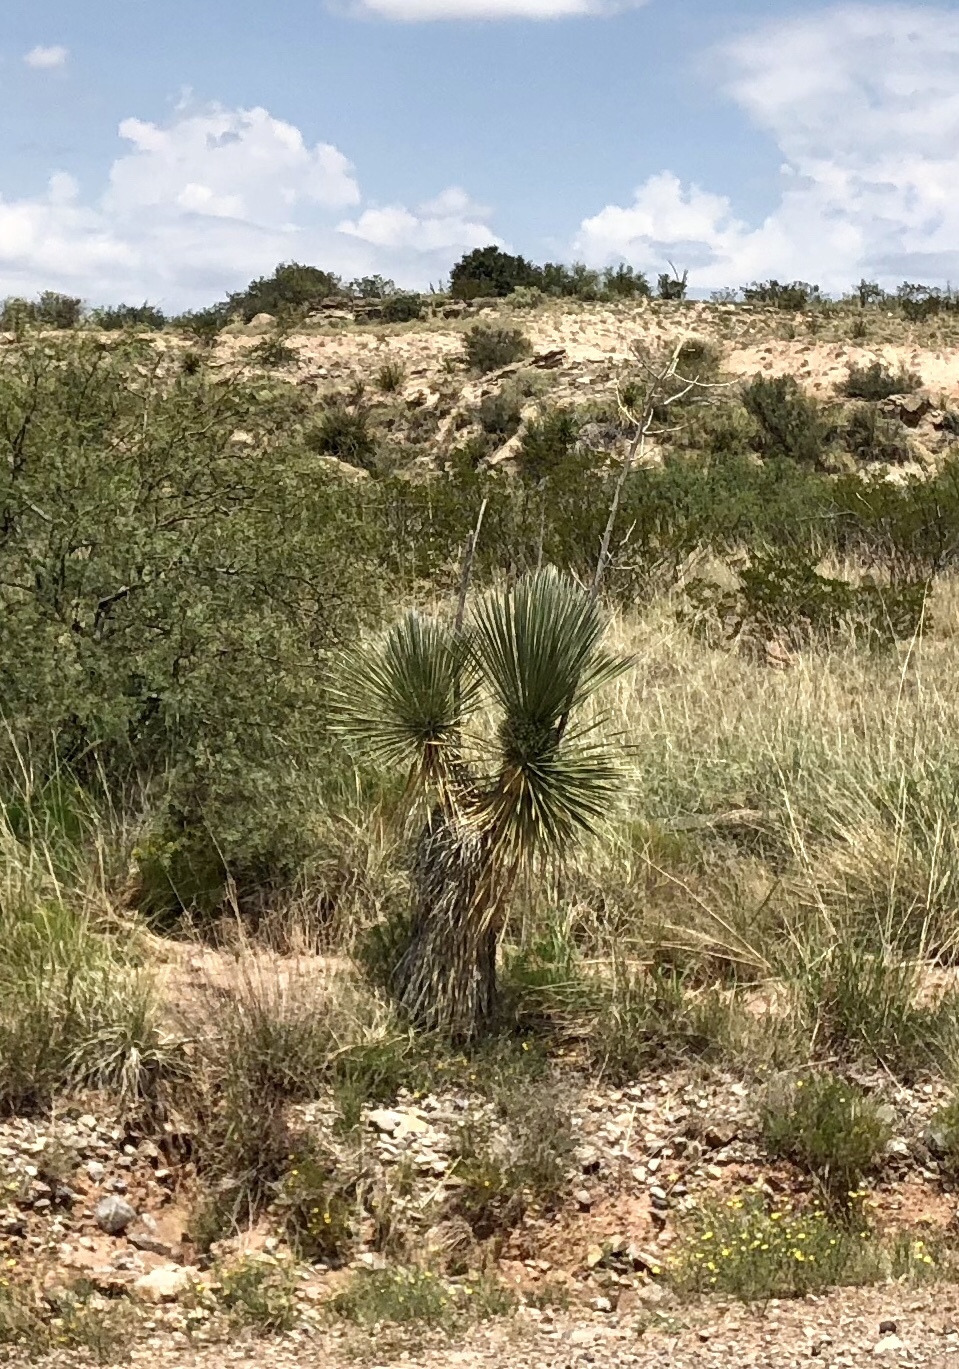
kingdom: Plantae
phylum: Tracheophyta
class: Liliopsida
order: Asparagales
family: Asparagaceae
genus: Yucca
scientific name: Yucca elata
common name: Palmella
